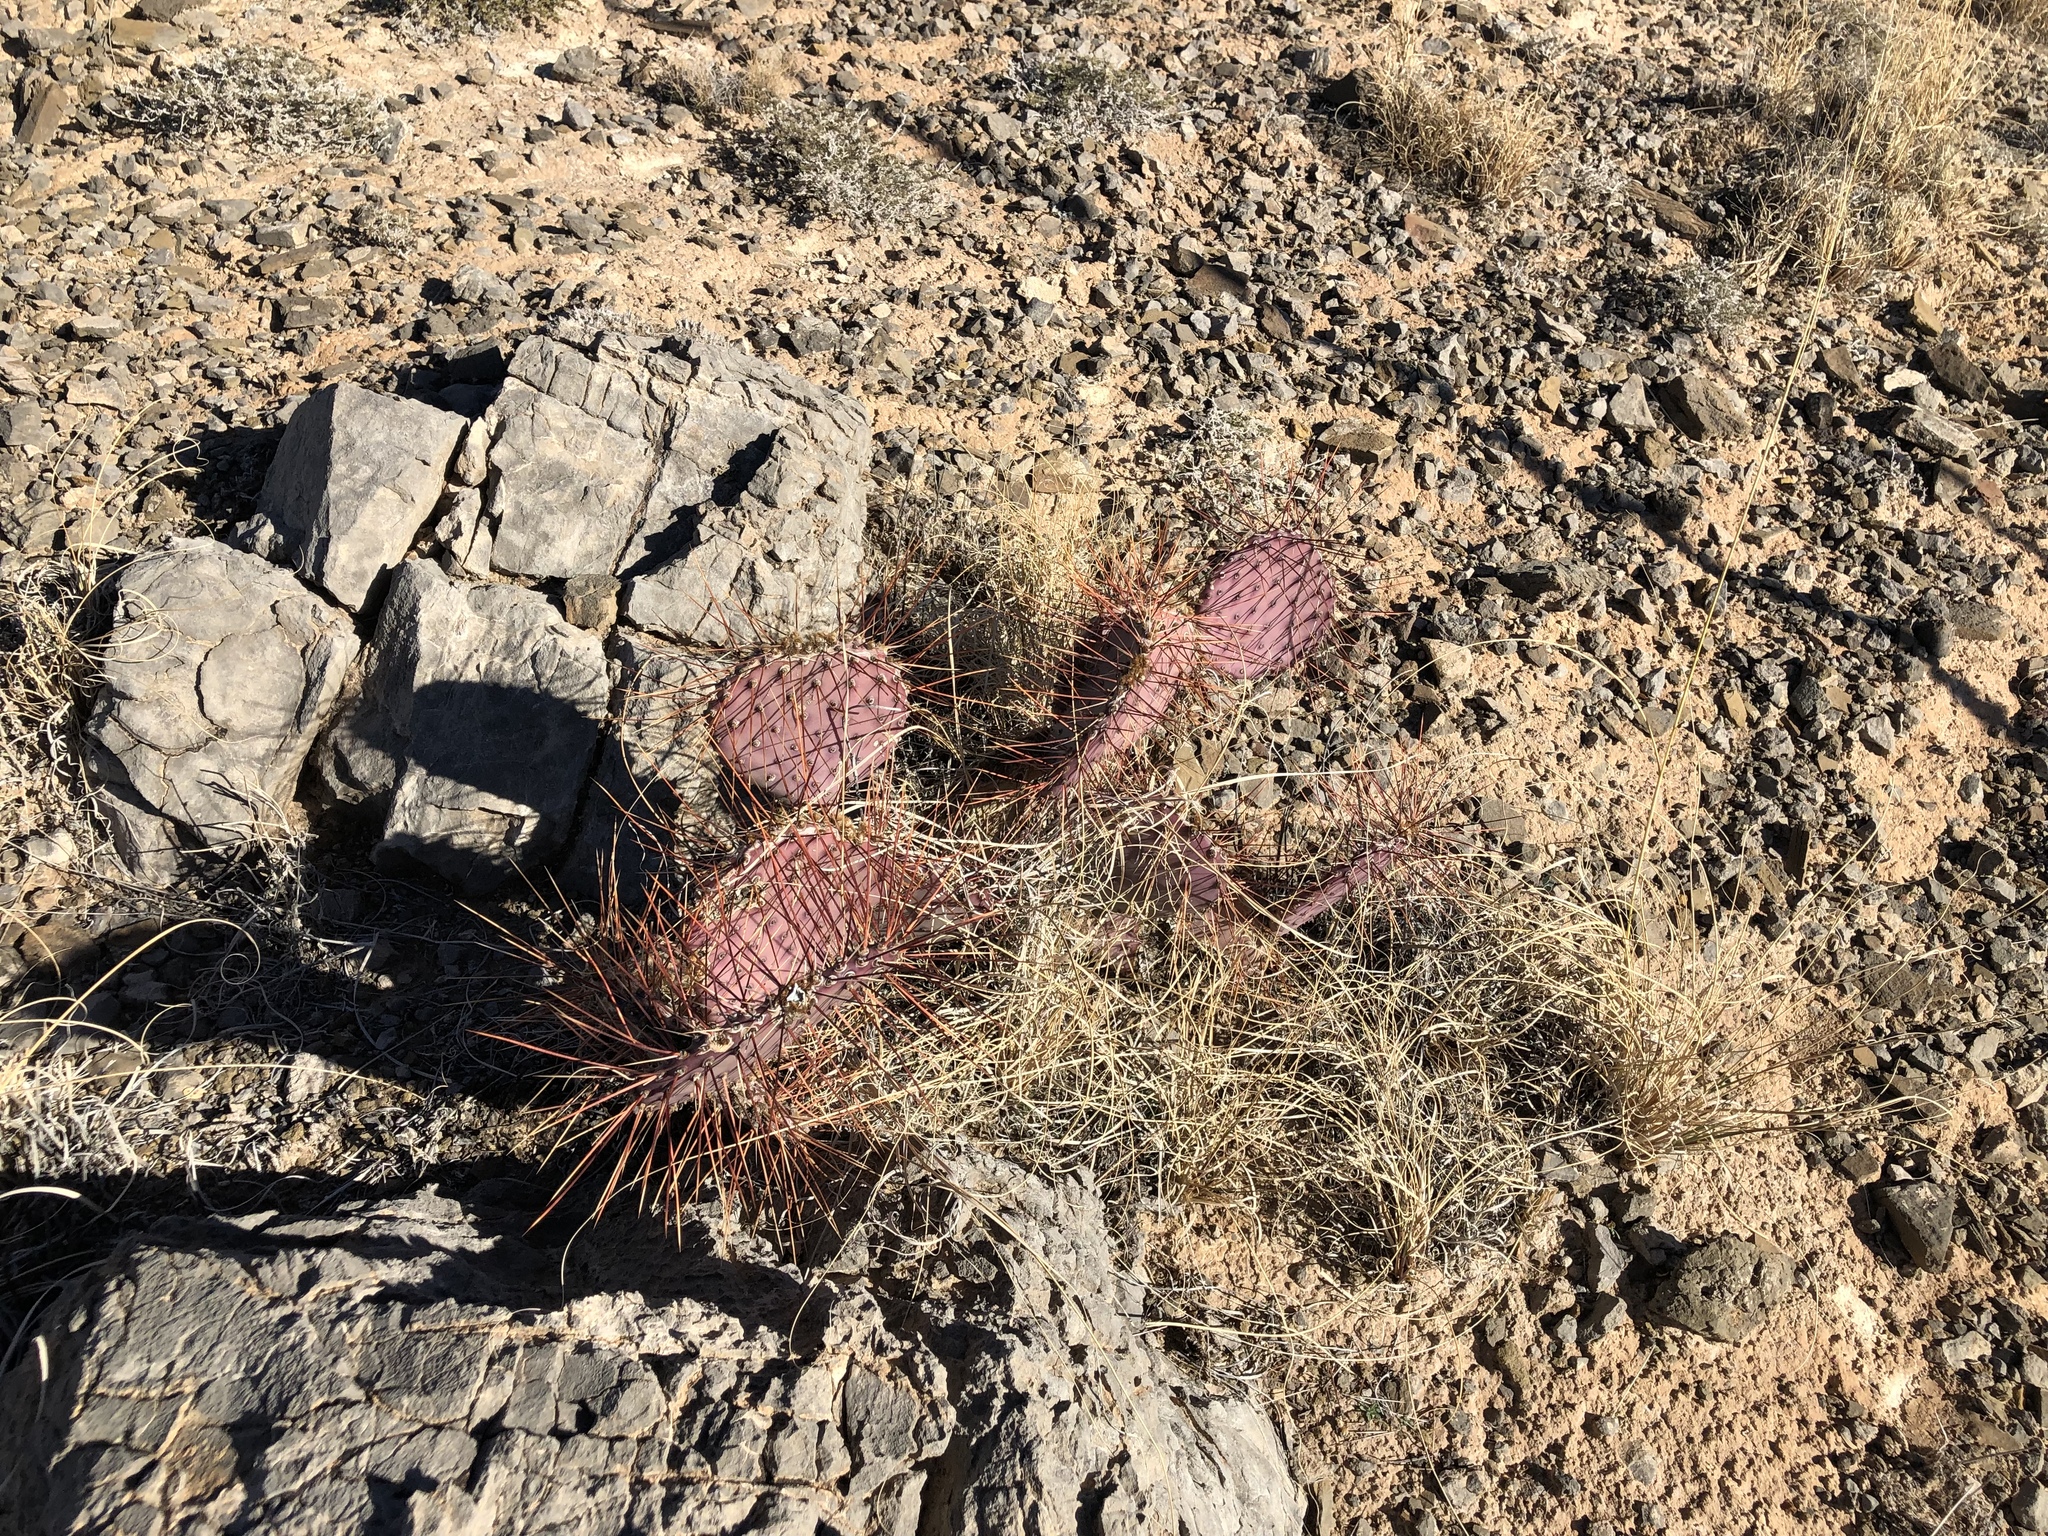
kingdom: Plantae
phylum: Tracheophyta
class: Magnoliopsida
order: Caryophyllales
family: Cactaceae
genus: Opuntia
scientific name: Opuntia macrocentra
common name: Purple prickly-pear
